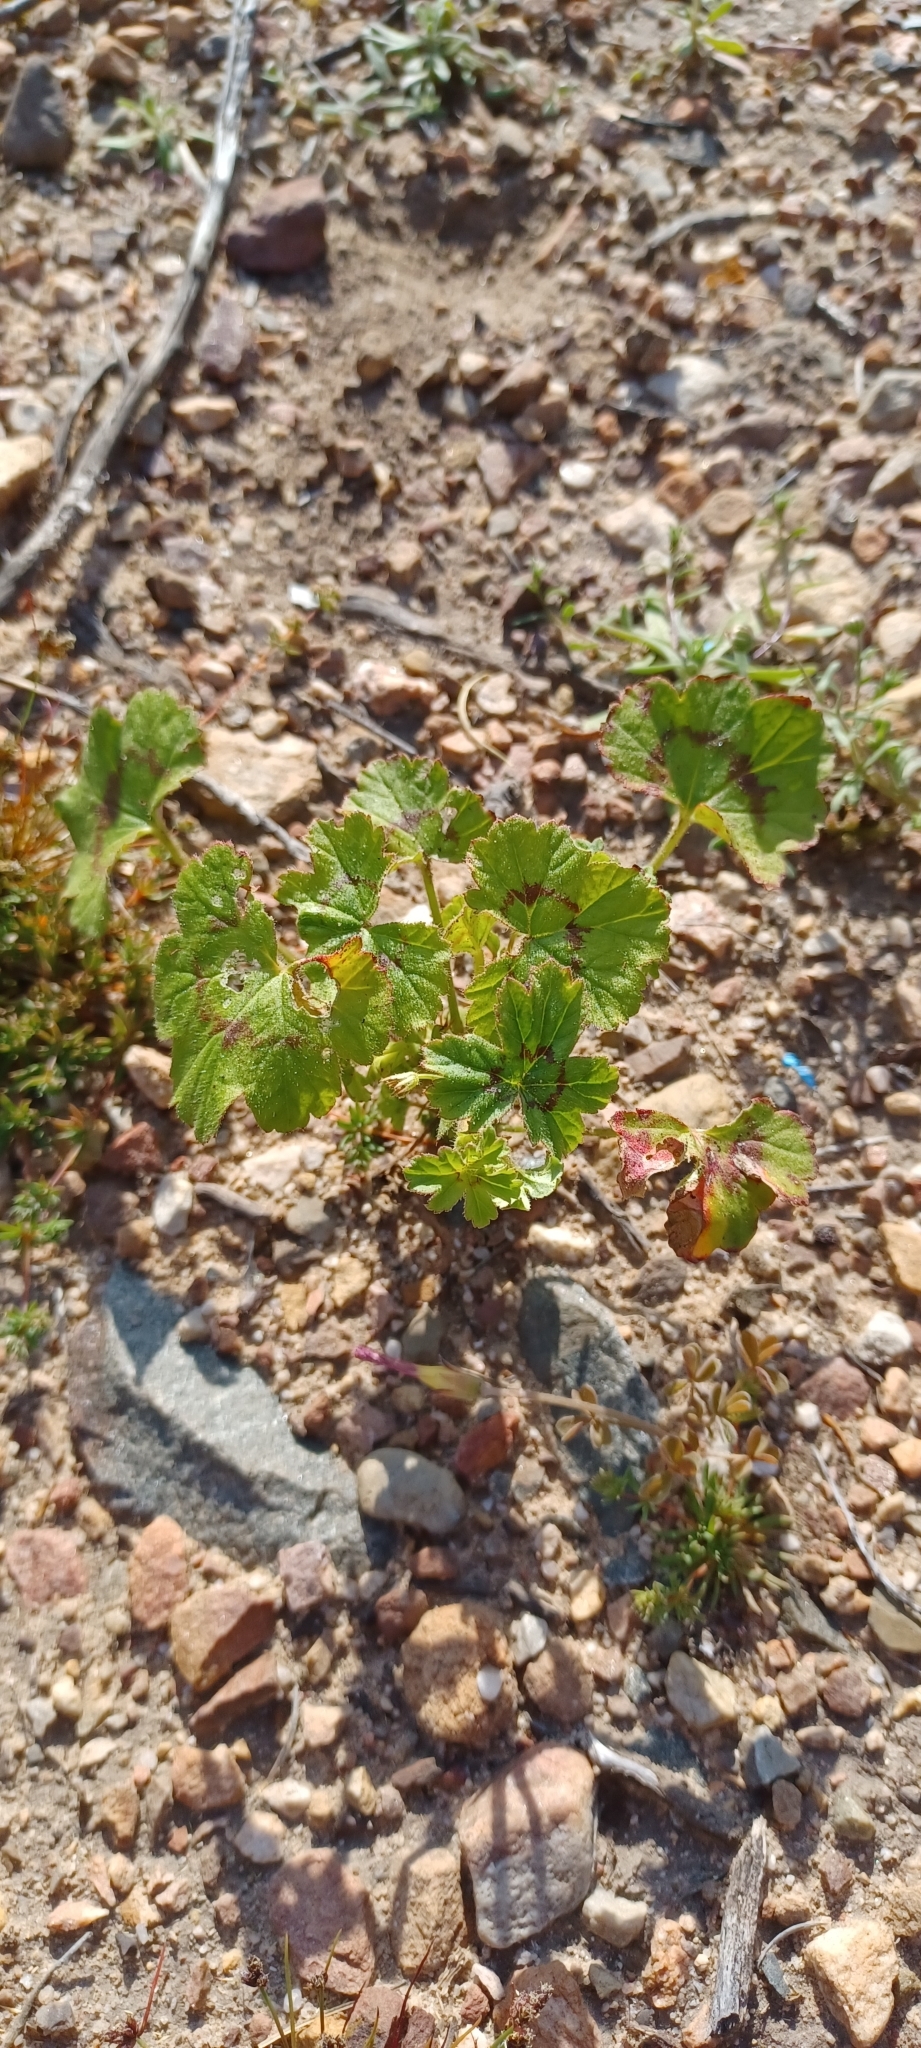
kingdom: Plantae
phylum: Tracheophyta
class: Magnoliopsida
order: Geraniales
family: Geraniaceae
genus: Pelargonium
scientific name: Pelargonium elongatum
